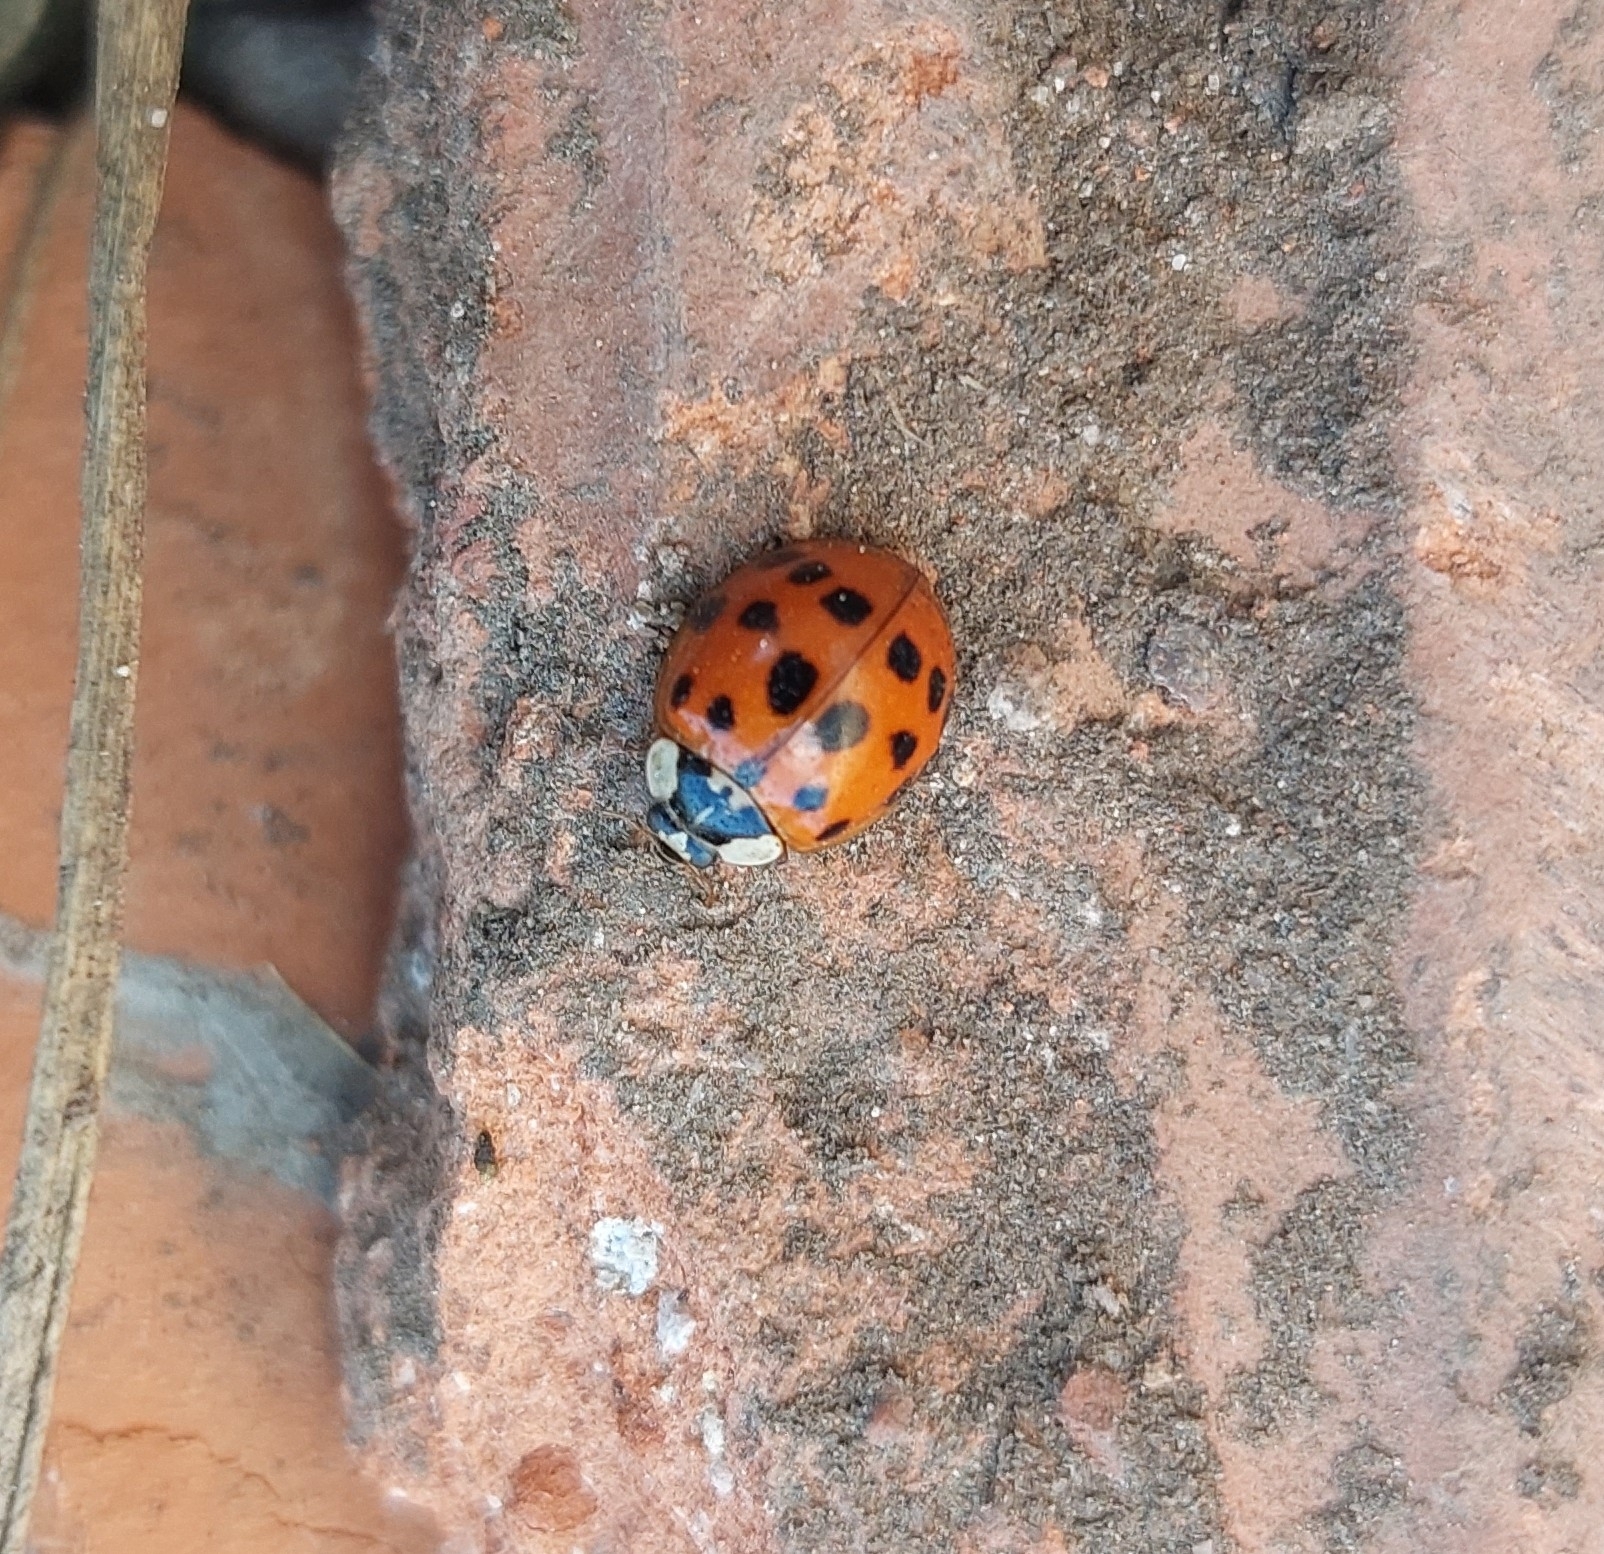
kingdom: Animalia
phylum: Arthropoda
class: Insecta
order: Coleoptera
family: Coccinellidae
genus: Harmonia
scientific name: Harmonia axyridis
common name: Harlequin ladybird
